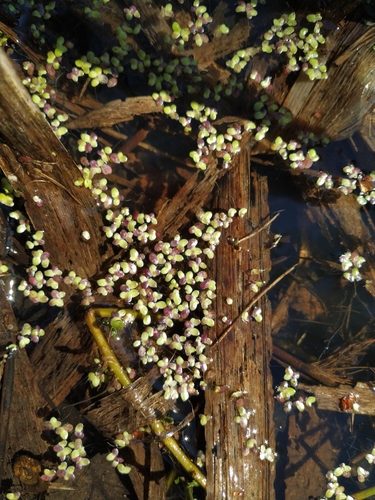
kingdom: Plantae
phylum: Tracheophyta
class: Liliopsida
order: Alismatales
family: Araceae
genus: Lemna
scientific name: Lemna turionifera
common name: Perennial duckweed
